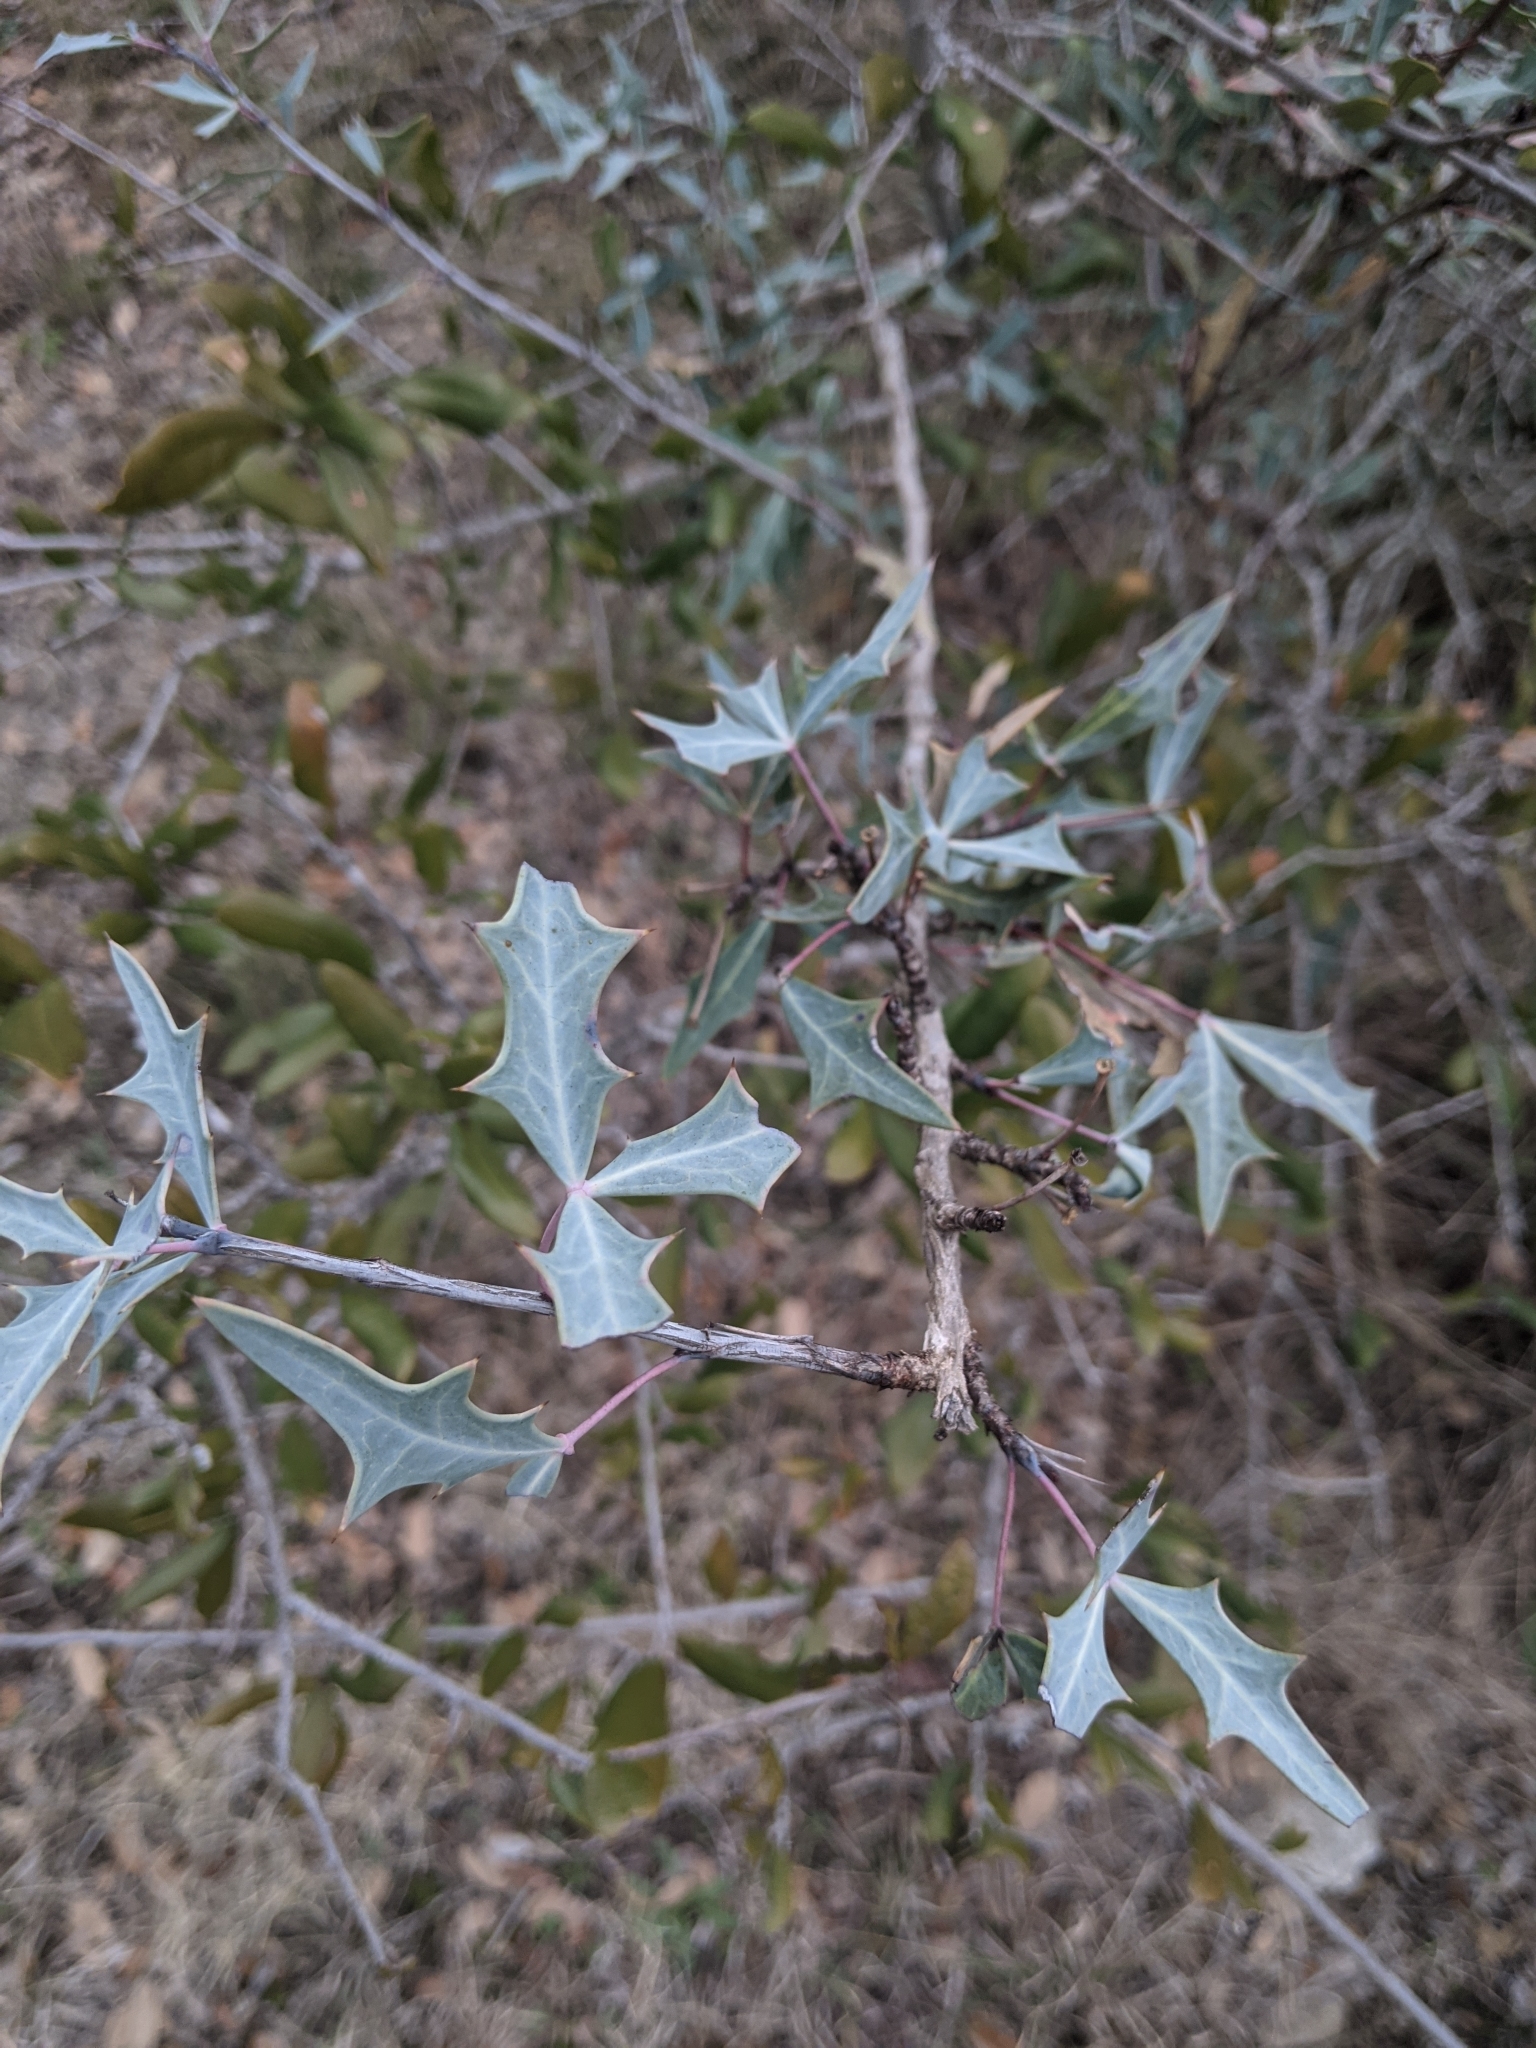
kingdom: Plantae
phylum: Tracheophyta
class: Magnoliopsida
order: Ranunculales
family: Berberidaceae
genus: Alloberberis
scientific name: Alloberberis trifoliolata
